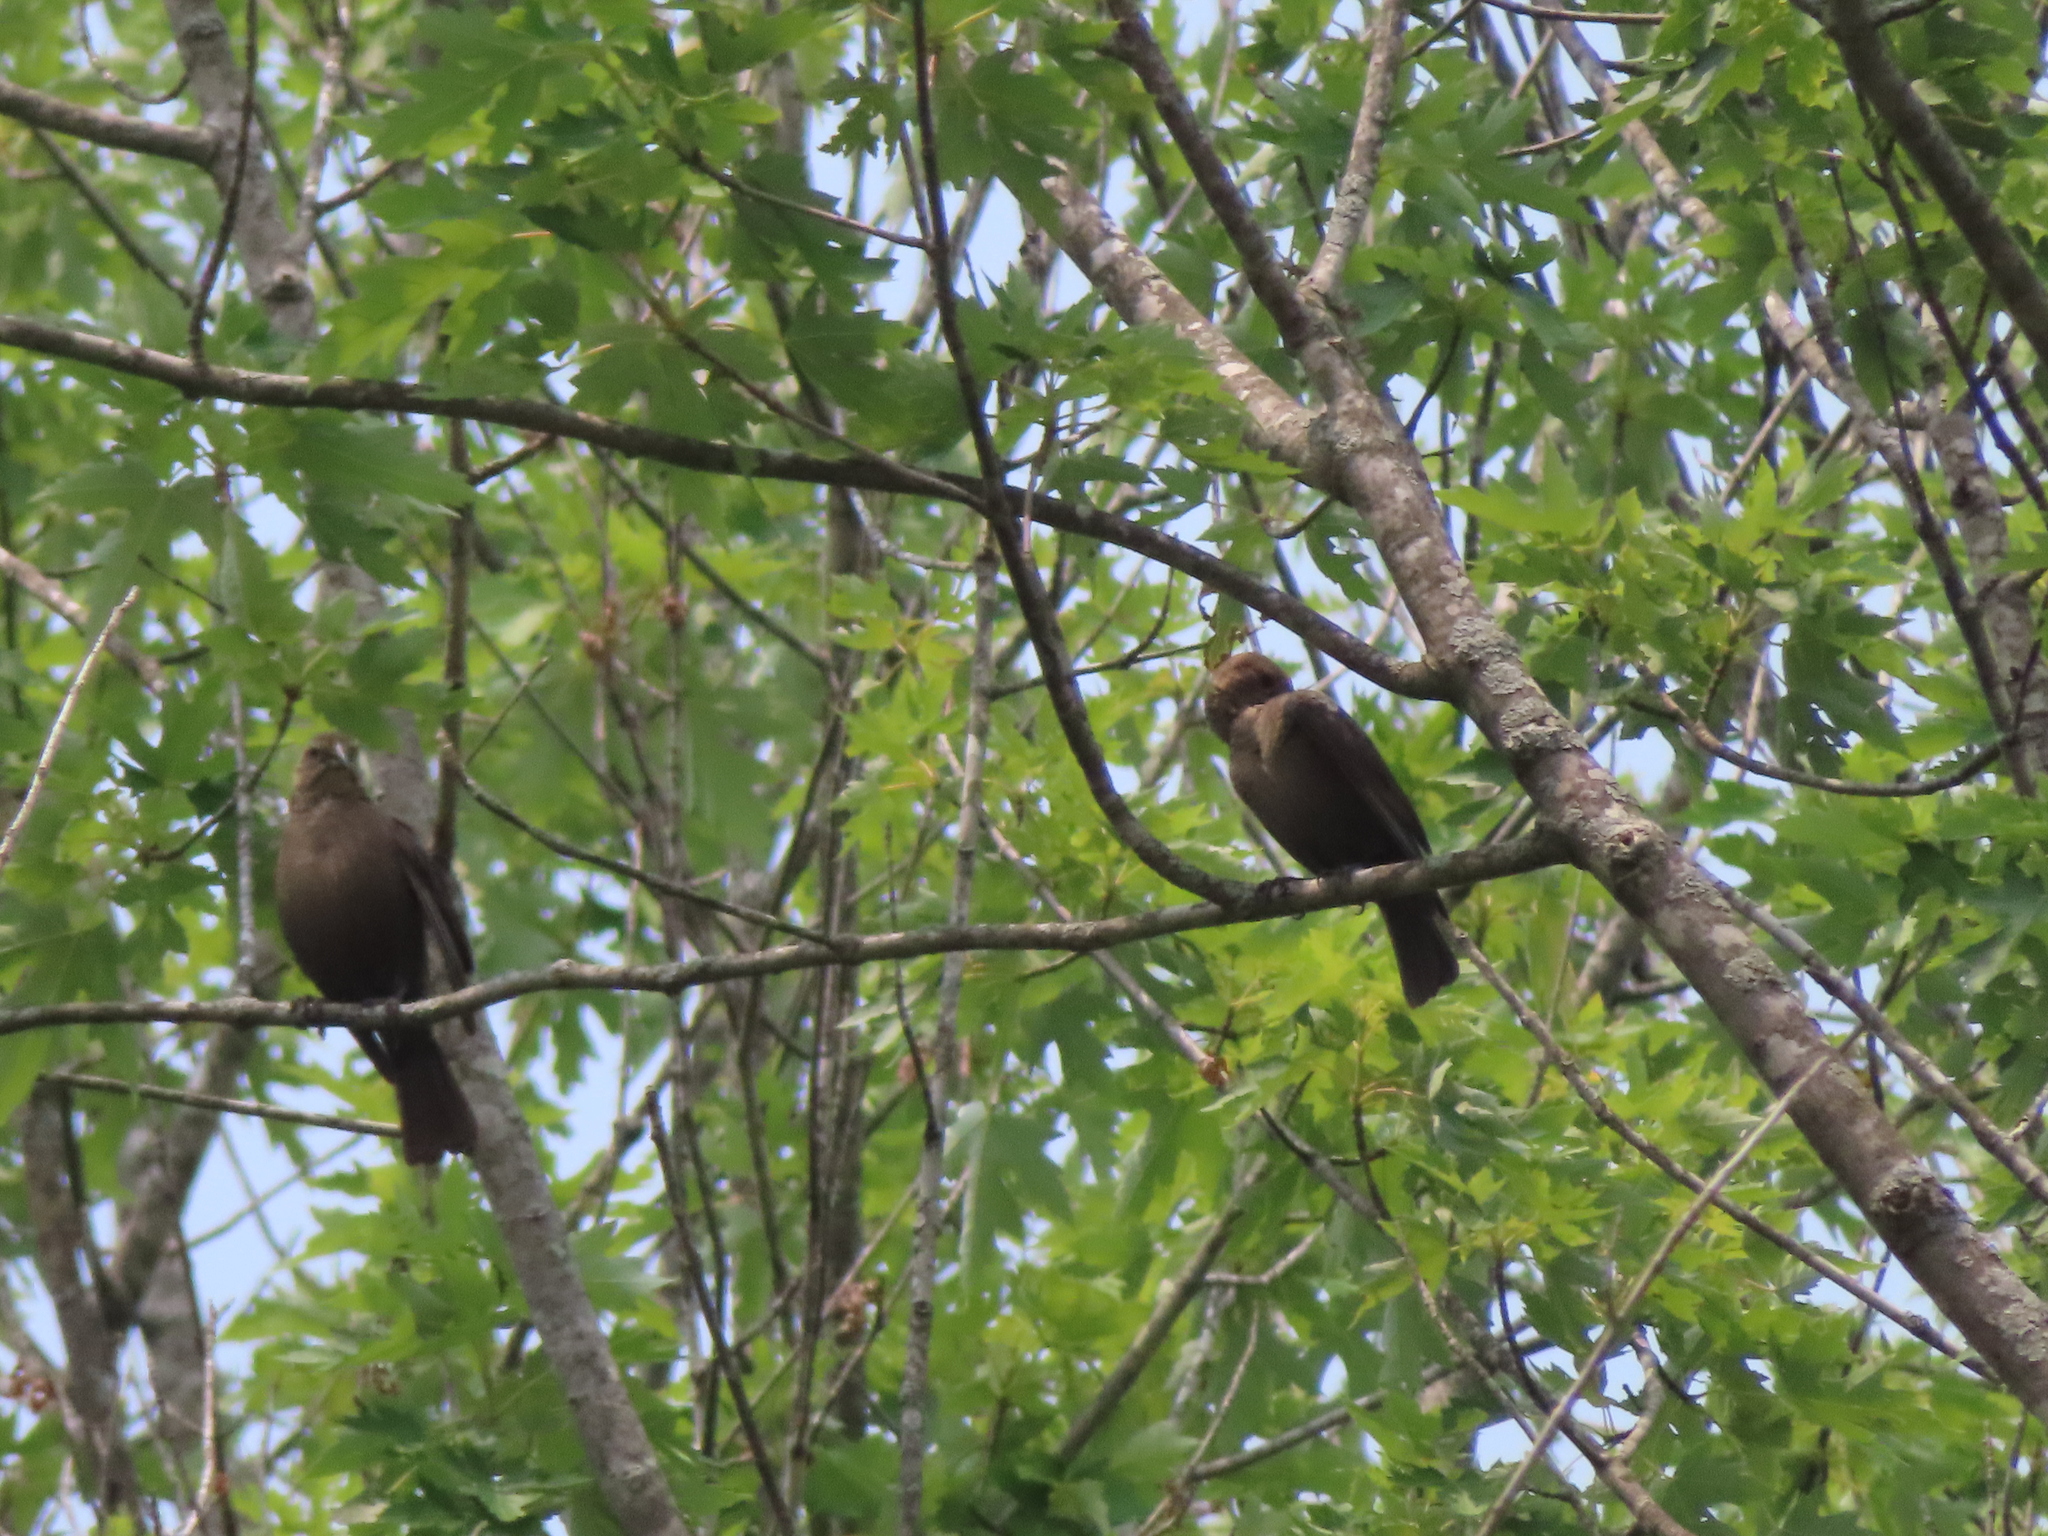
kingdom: Animalia
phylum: Chordata
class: Aves
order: Passeriformes
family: Icteridae
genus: Molothrus
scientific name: Molothrus ater
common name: Brown-headed cowbird
